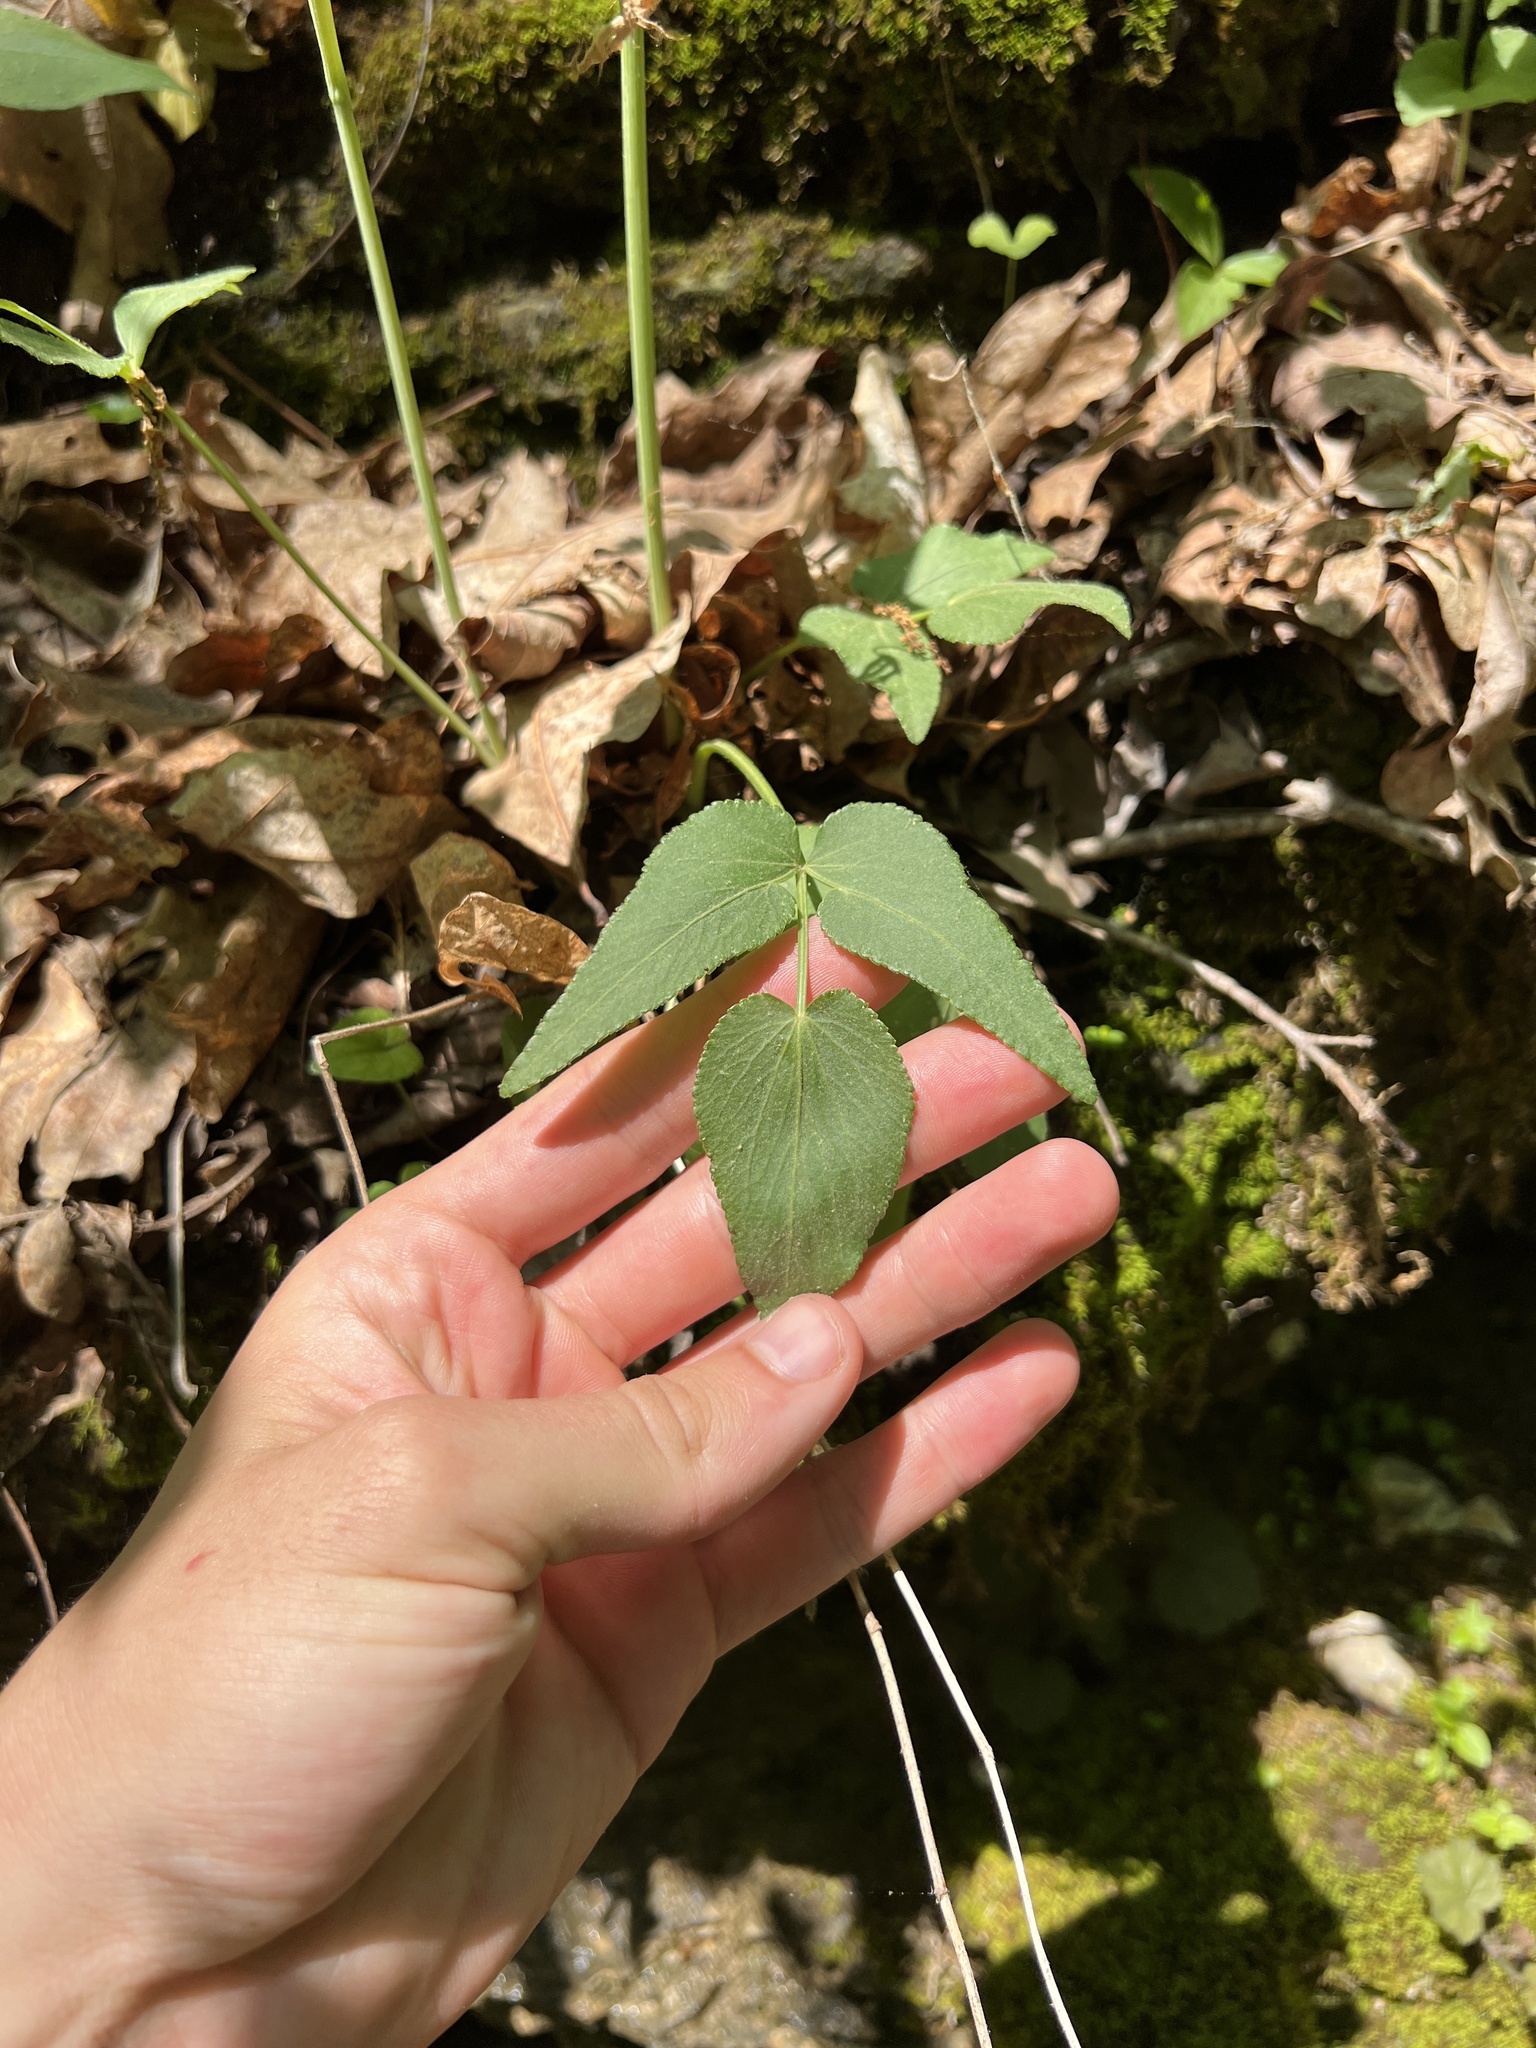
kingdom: Plantae
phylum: Tracheophyta
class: Magnoliopsida
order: Apiales
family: Apiaceae
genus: Thaspium
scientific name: Thaspium trifoliatum
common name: Purple meadow-parsnip
